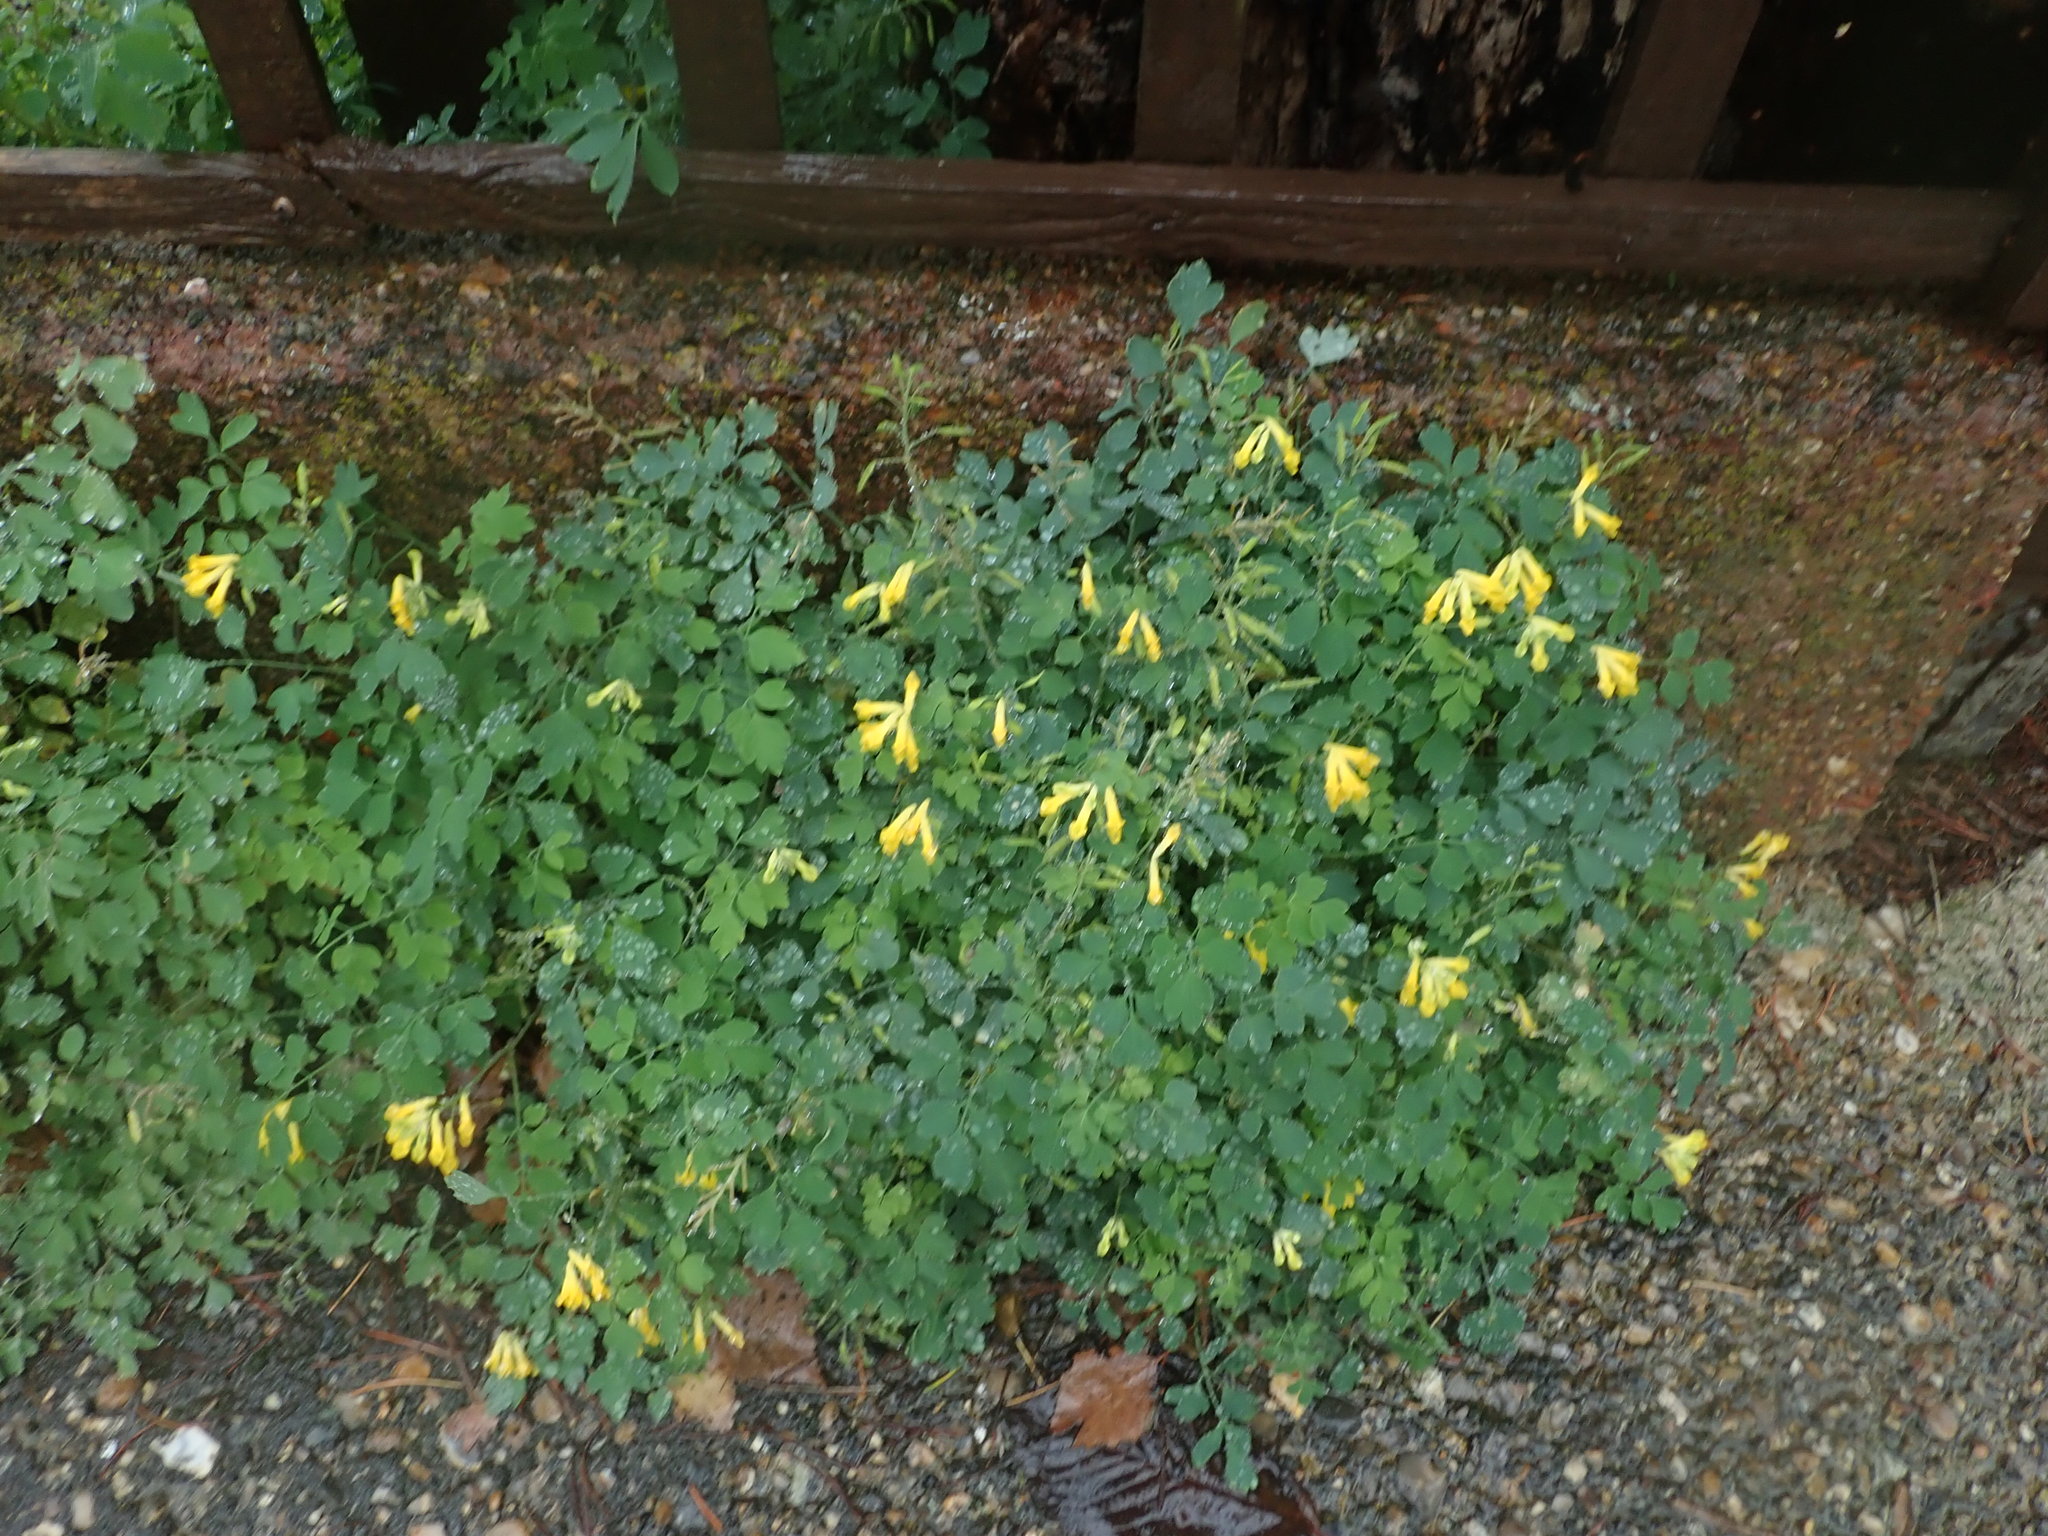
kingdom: Plantae
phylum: Tracheophyta
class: Magnoliopsida
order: Ranunculales
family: Papaveraceae
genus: Pseudofumaria
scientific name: Pseudofumaria lutea
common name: Yellow corydalis
